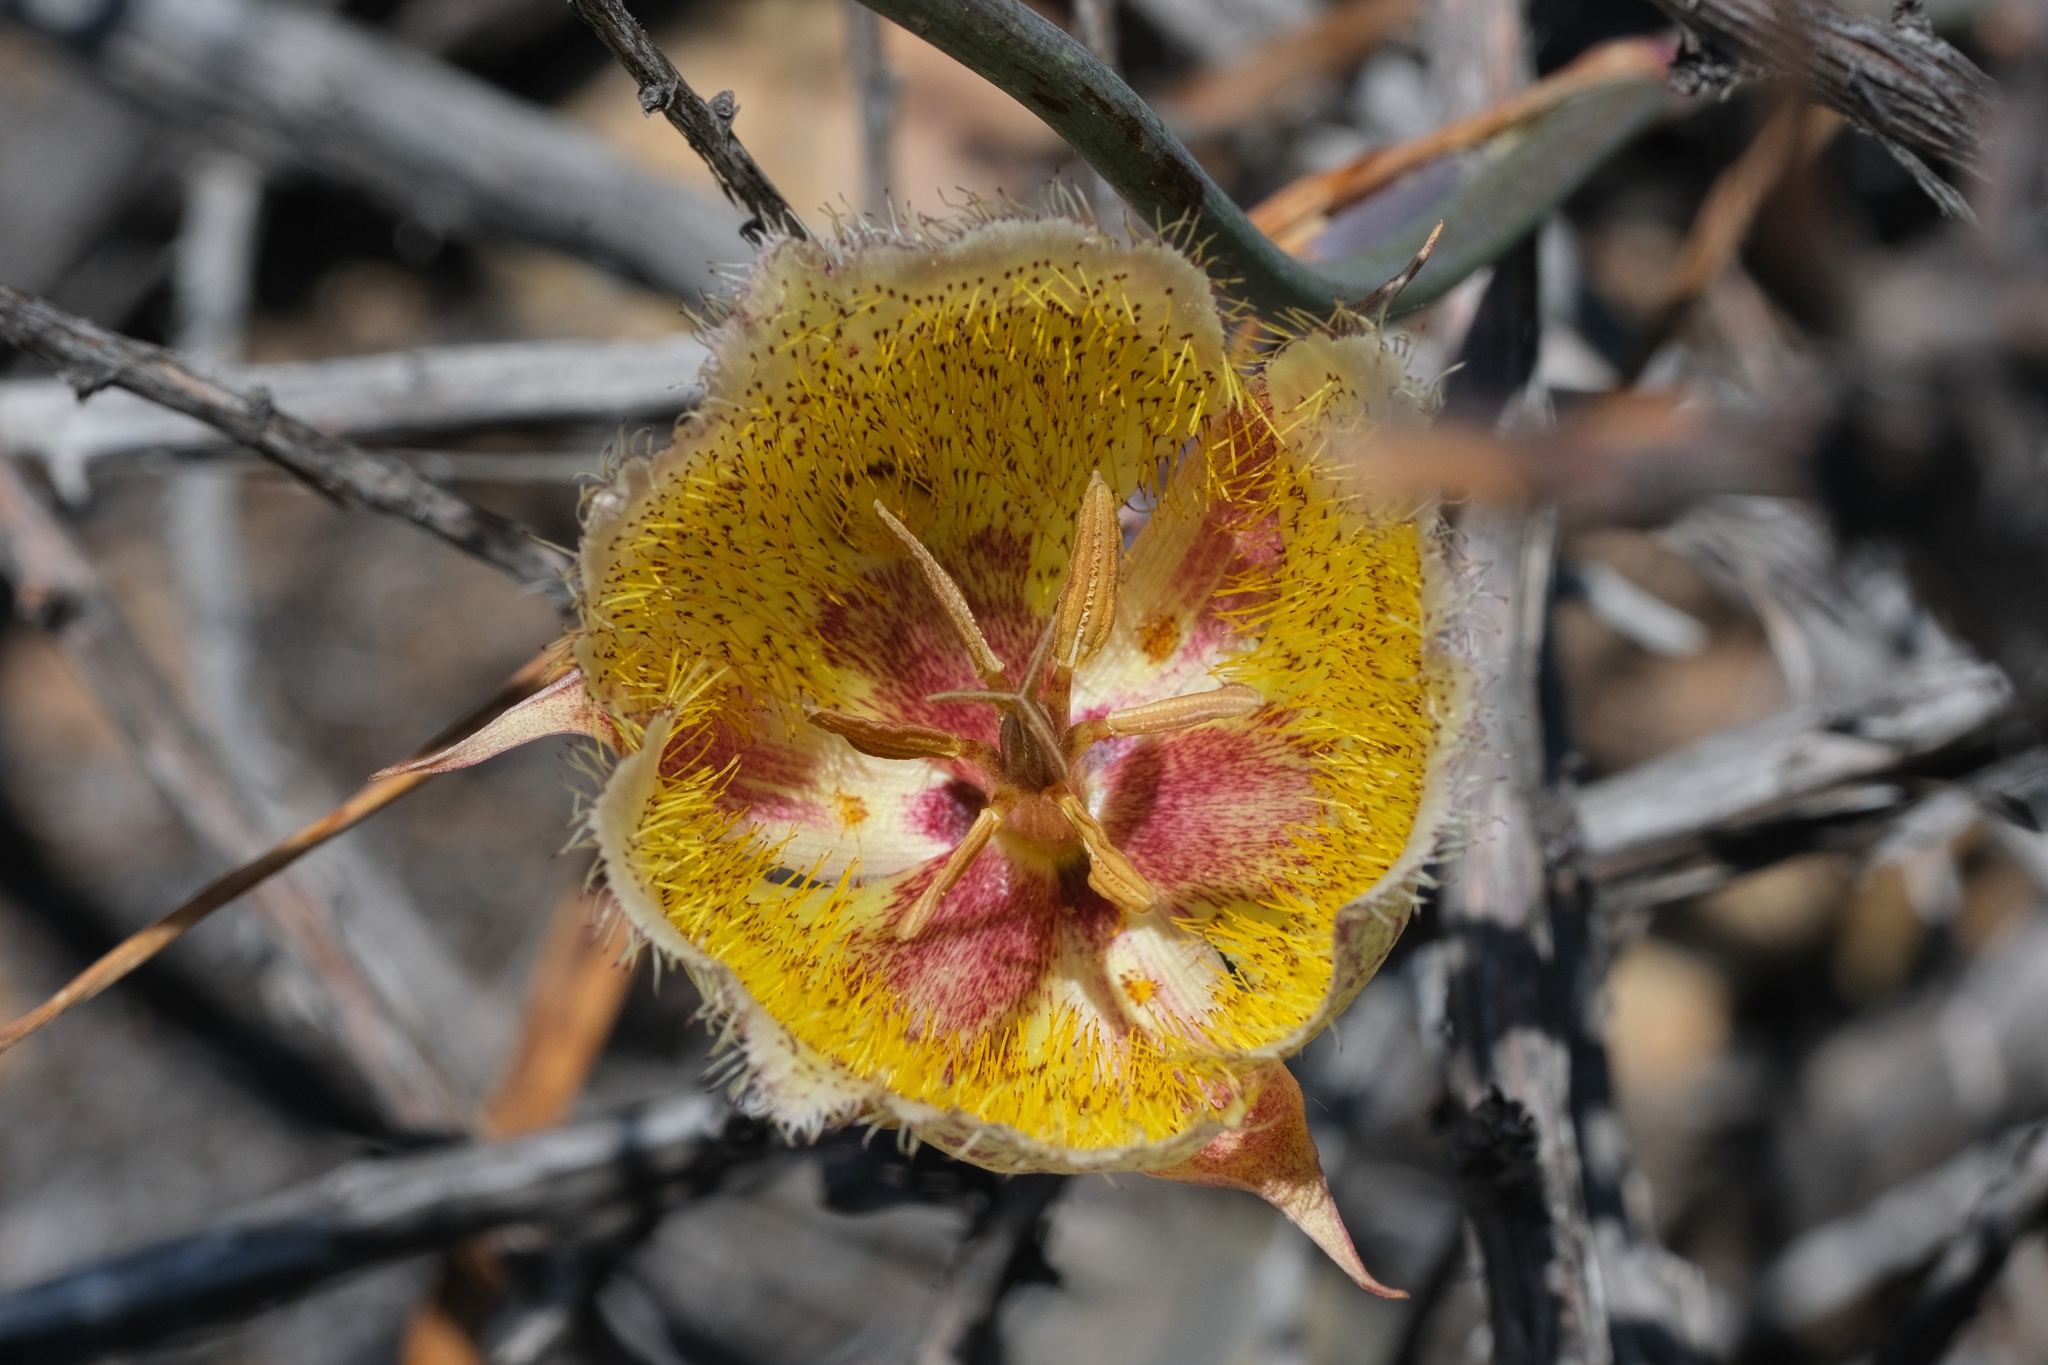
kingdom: Plantae
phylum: Tracheophyta
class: Liliopsida
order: Liliales
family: Liliaceae
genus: Calochortus
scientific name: Calochortus weedii
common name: Weed's mariposa-lily
